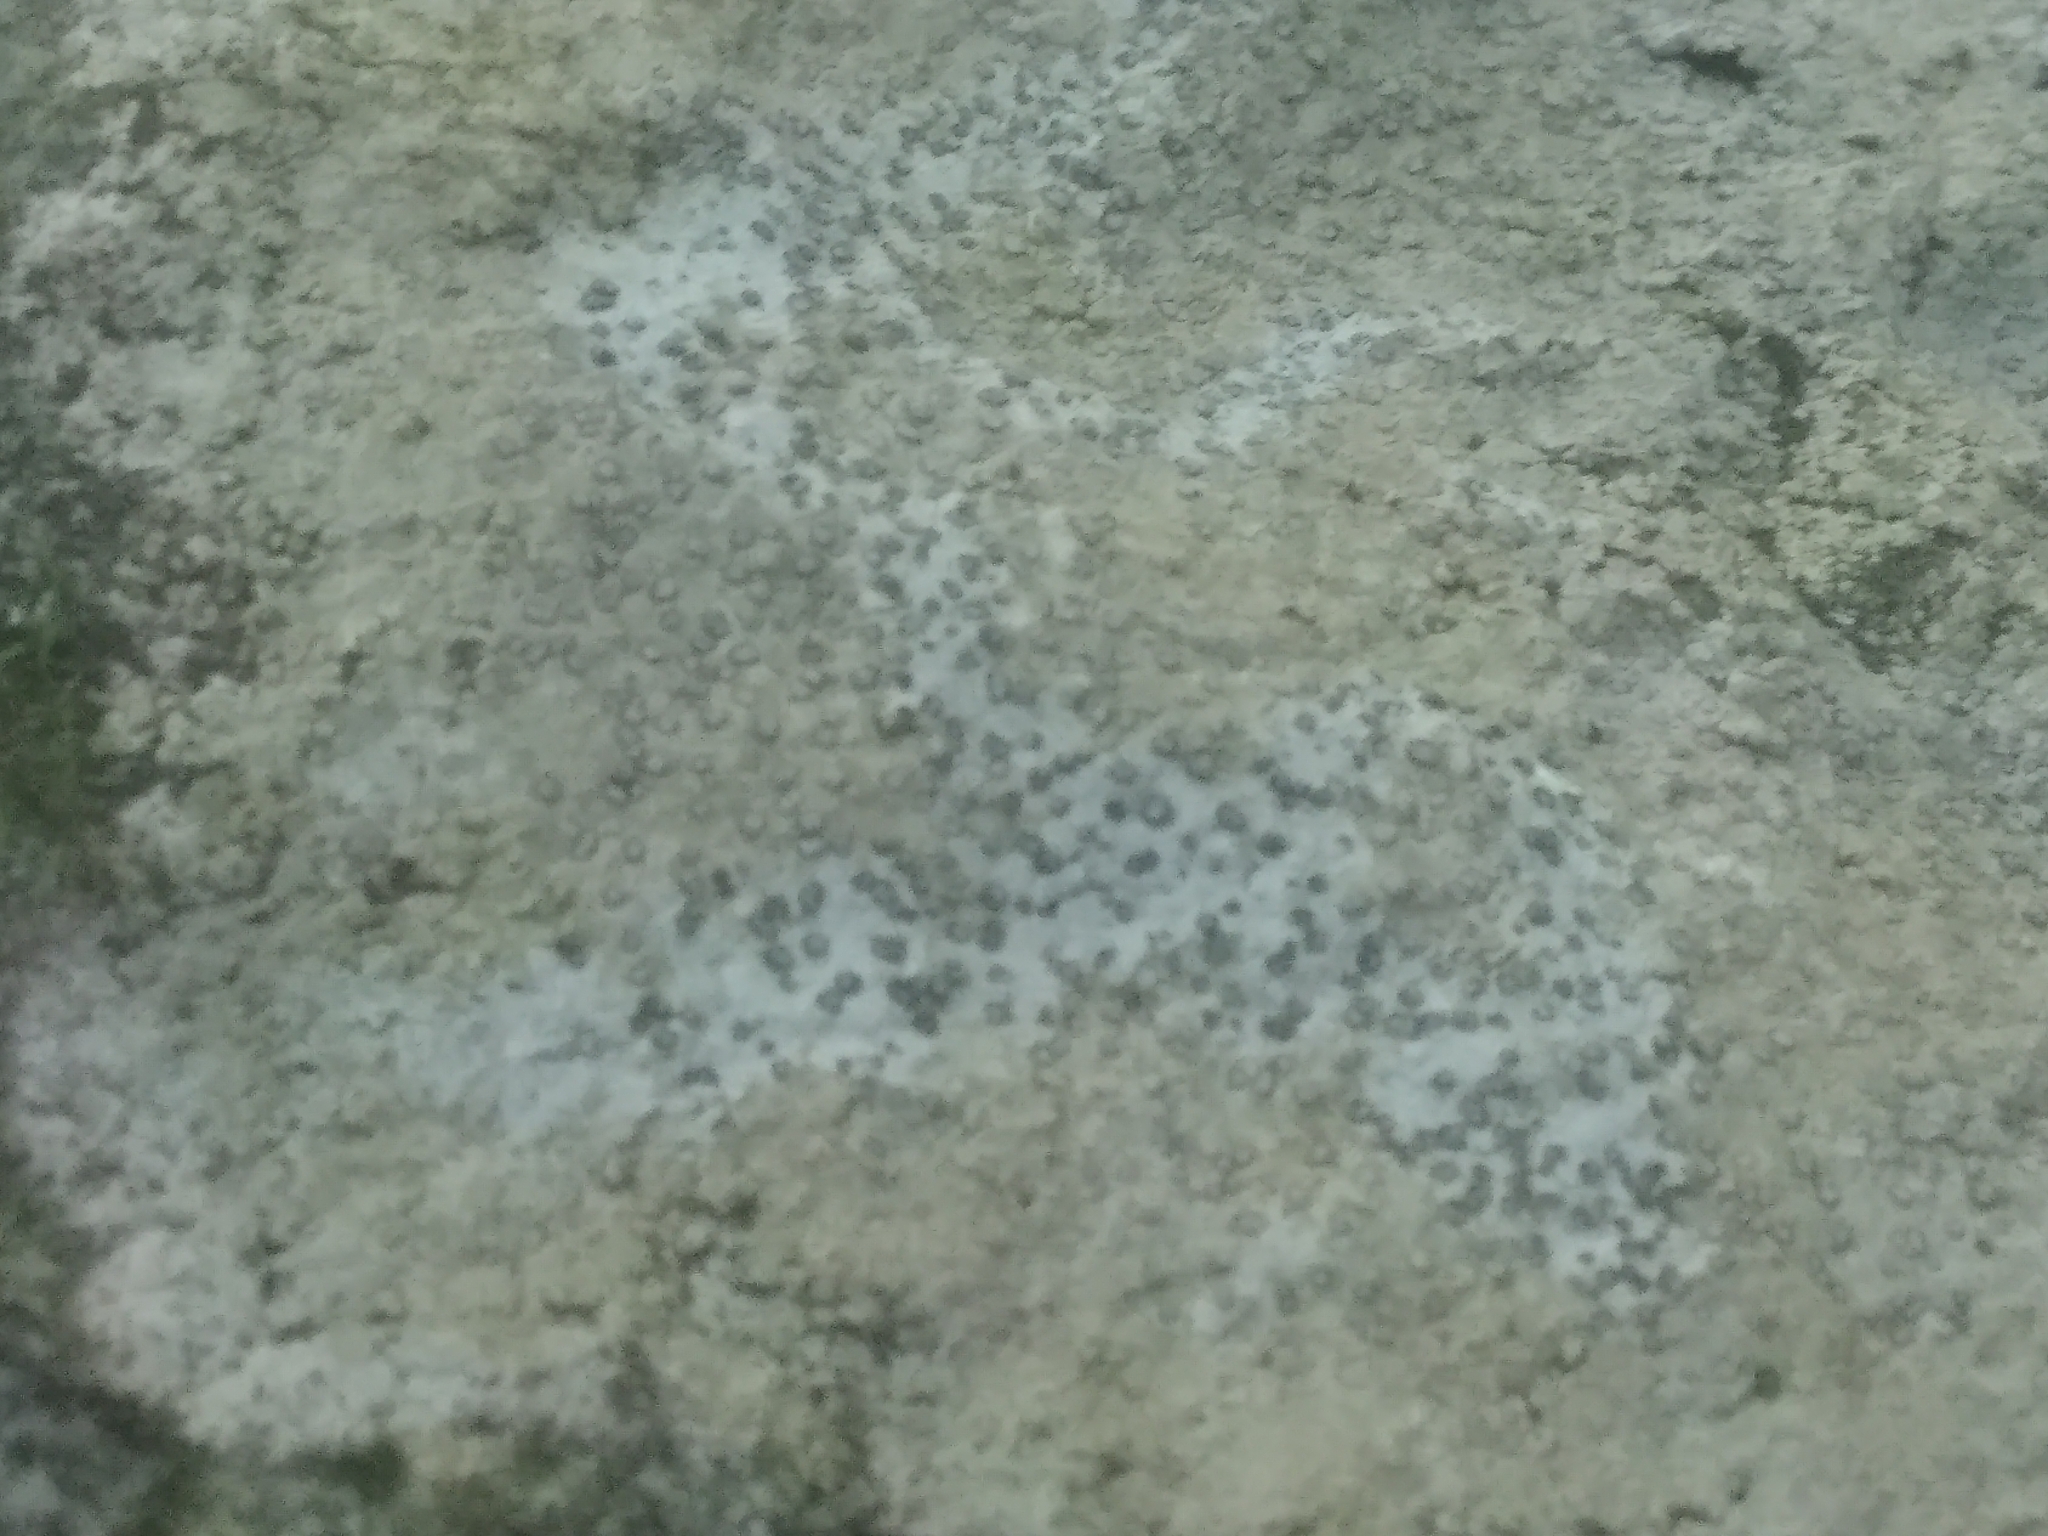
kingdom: Fungi
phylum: Ascomycota
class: Lecanoromycetes
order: Lecideales
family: Lecideaceae
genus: Porpidia
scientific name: Porpidia albocaerulescens
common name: Smokey-eyed boulder lichen
